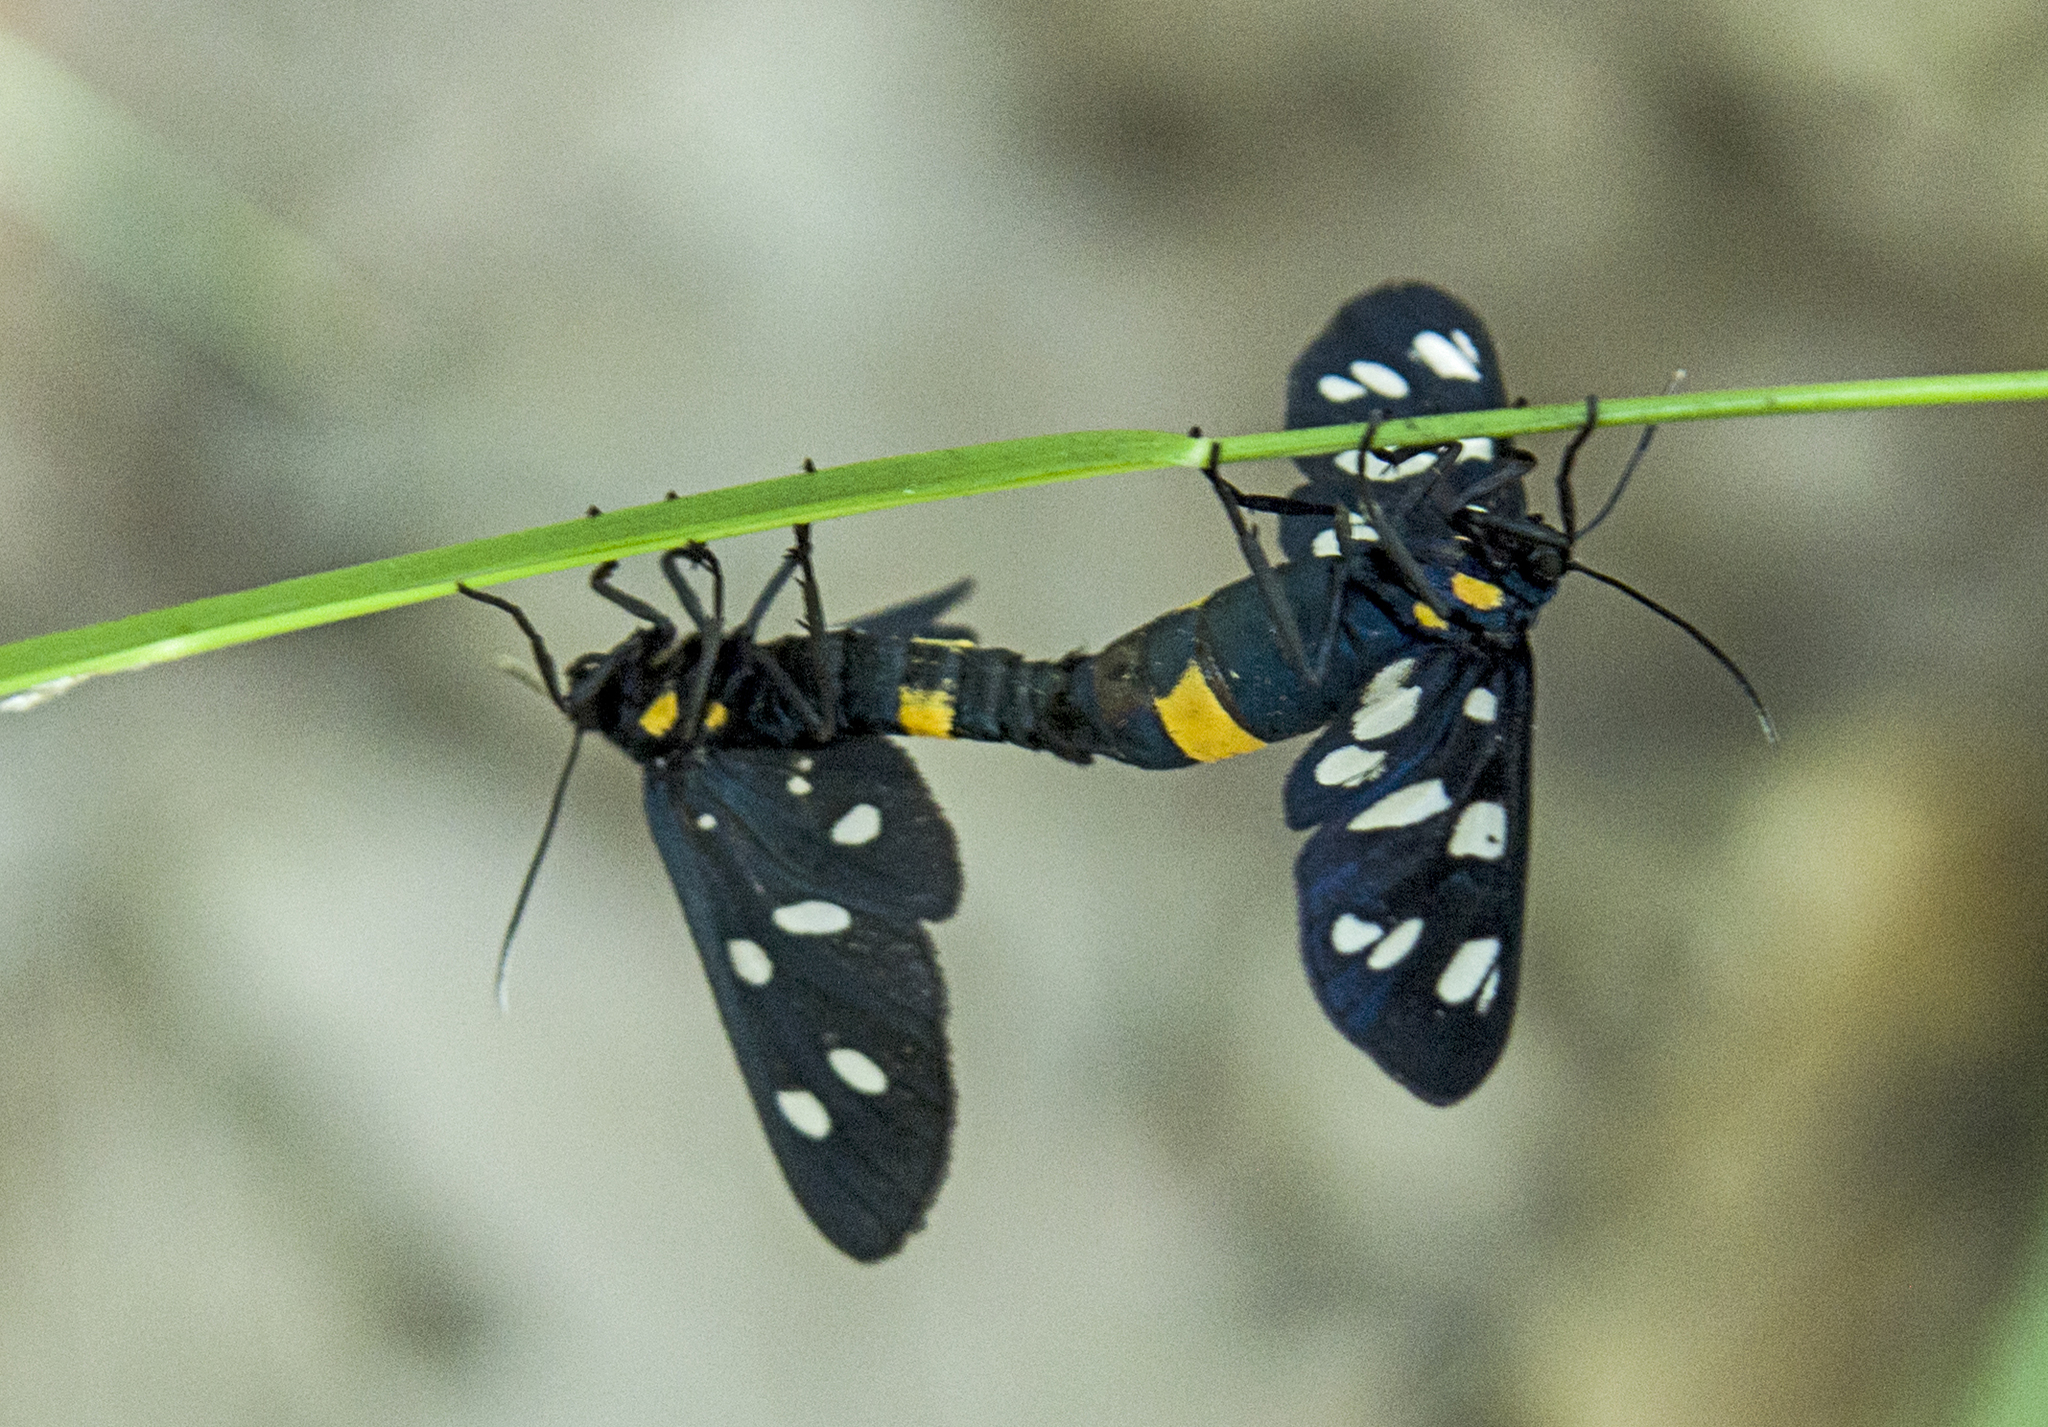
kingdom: Animalia
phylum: Arthropoda
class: Insecta
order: Lepidoptera
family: Erebidae
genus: Amata
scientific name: Amata phegea
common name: Nine-spotted
